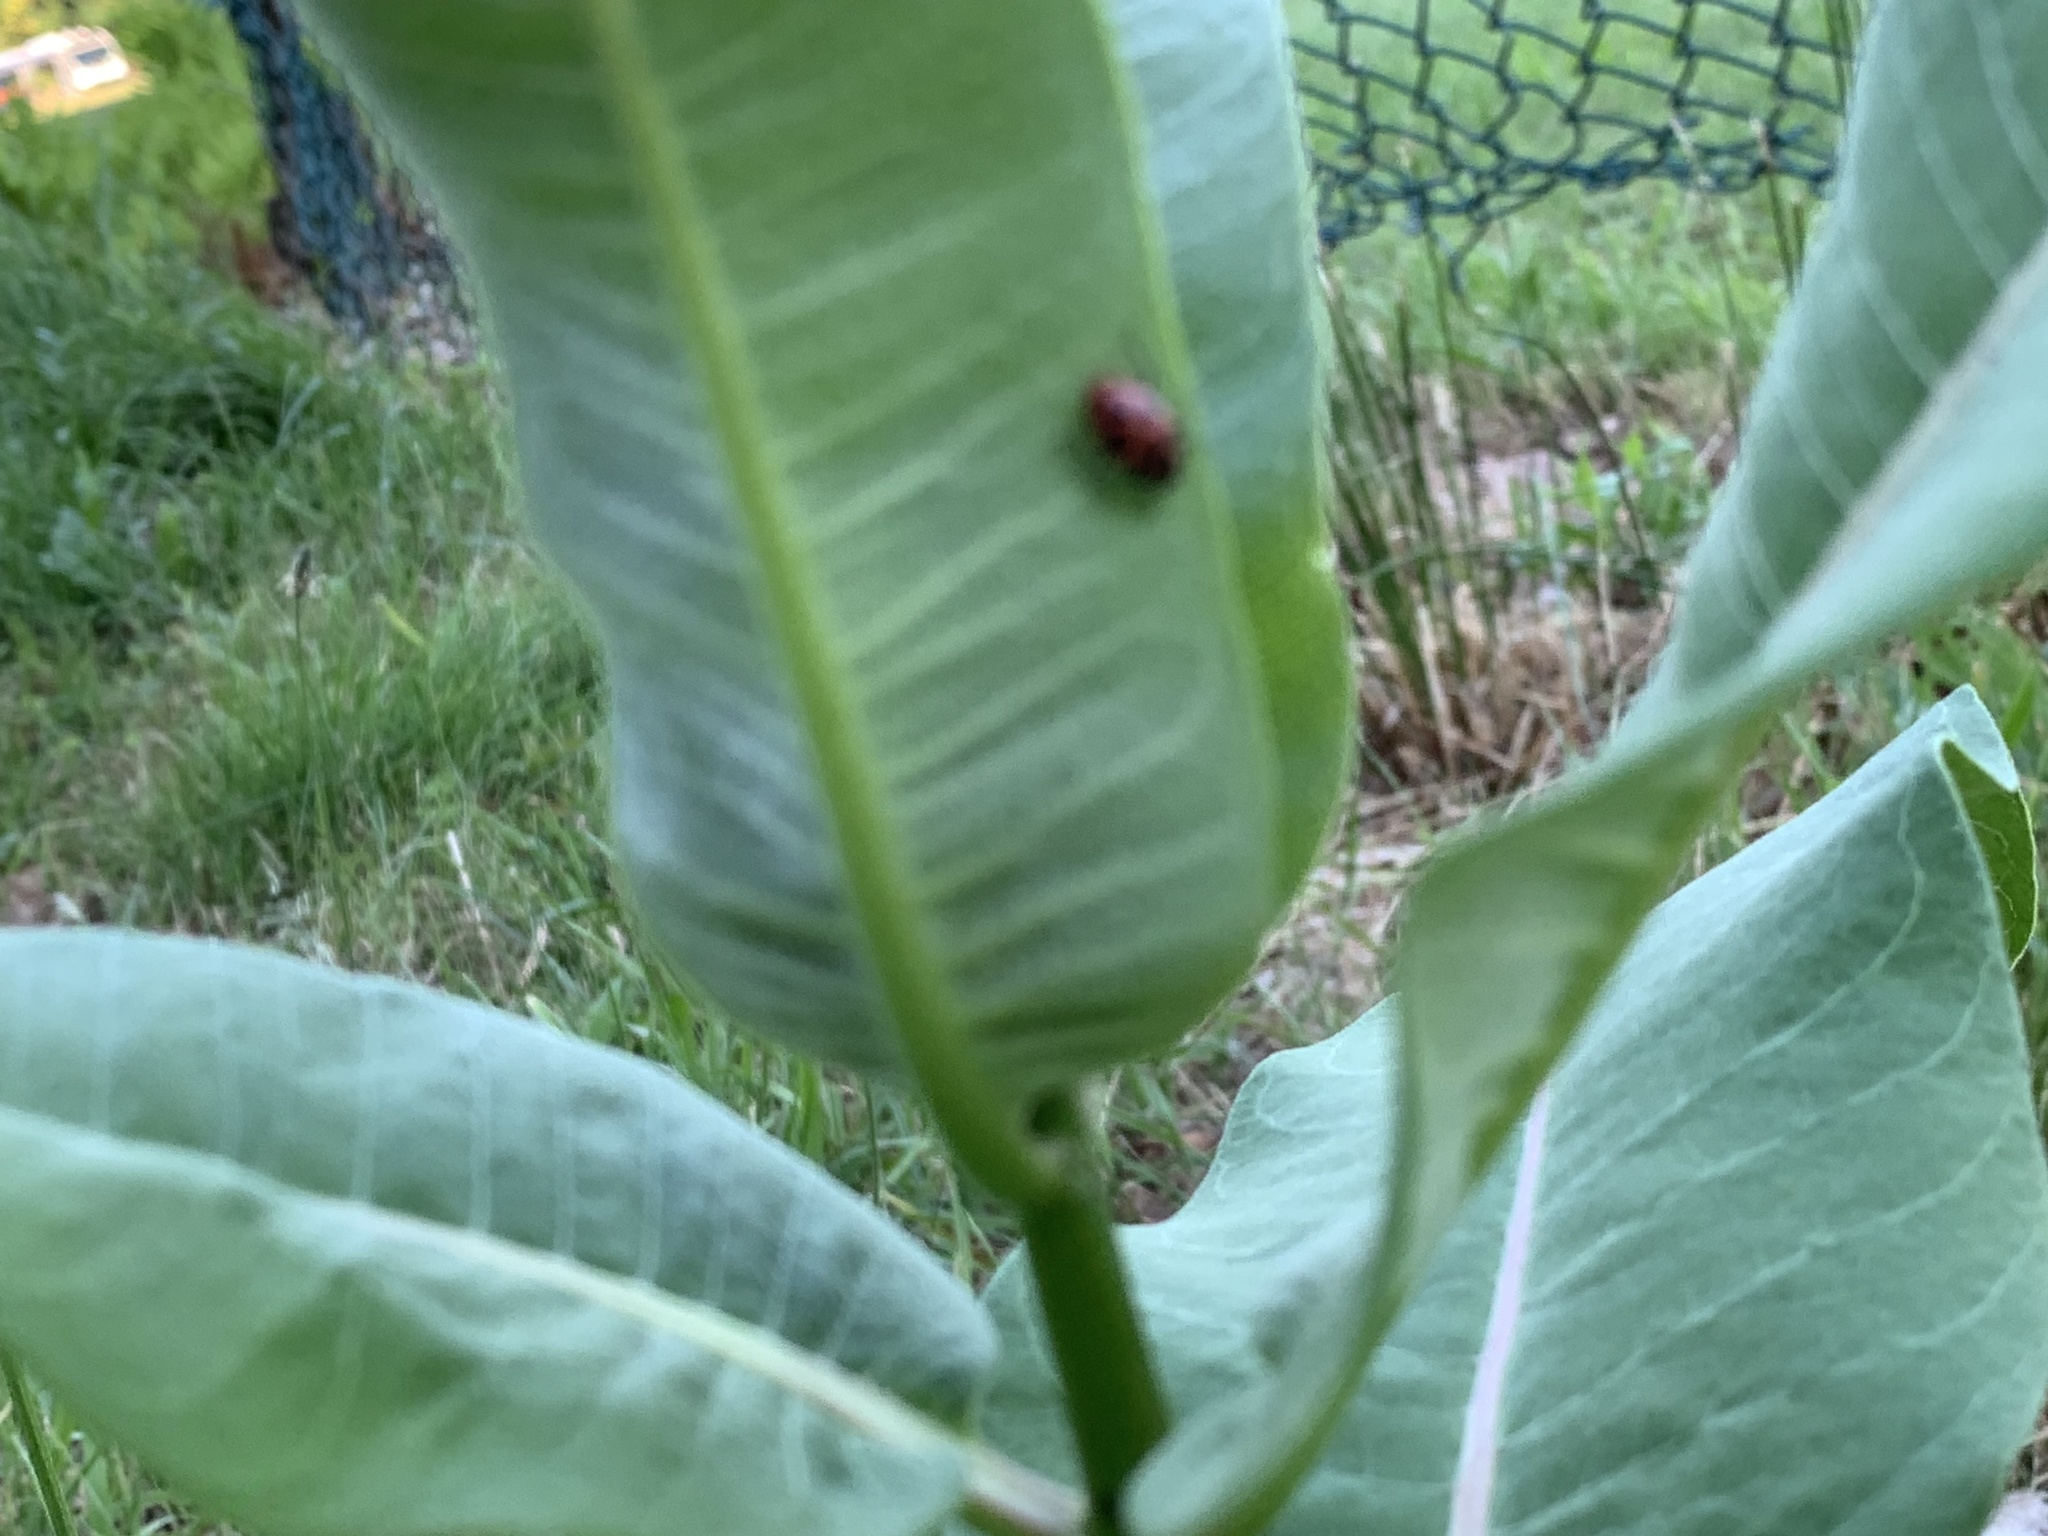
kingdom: Animalia
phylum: Arthropoda
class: Insecta
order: Coleoptera
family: Coccinellidae
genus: Coleomegilla
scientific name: Coleomegilla maculata
